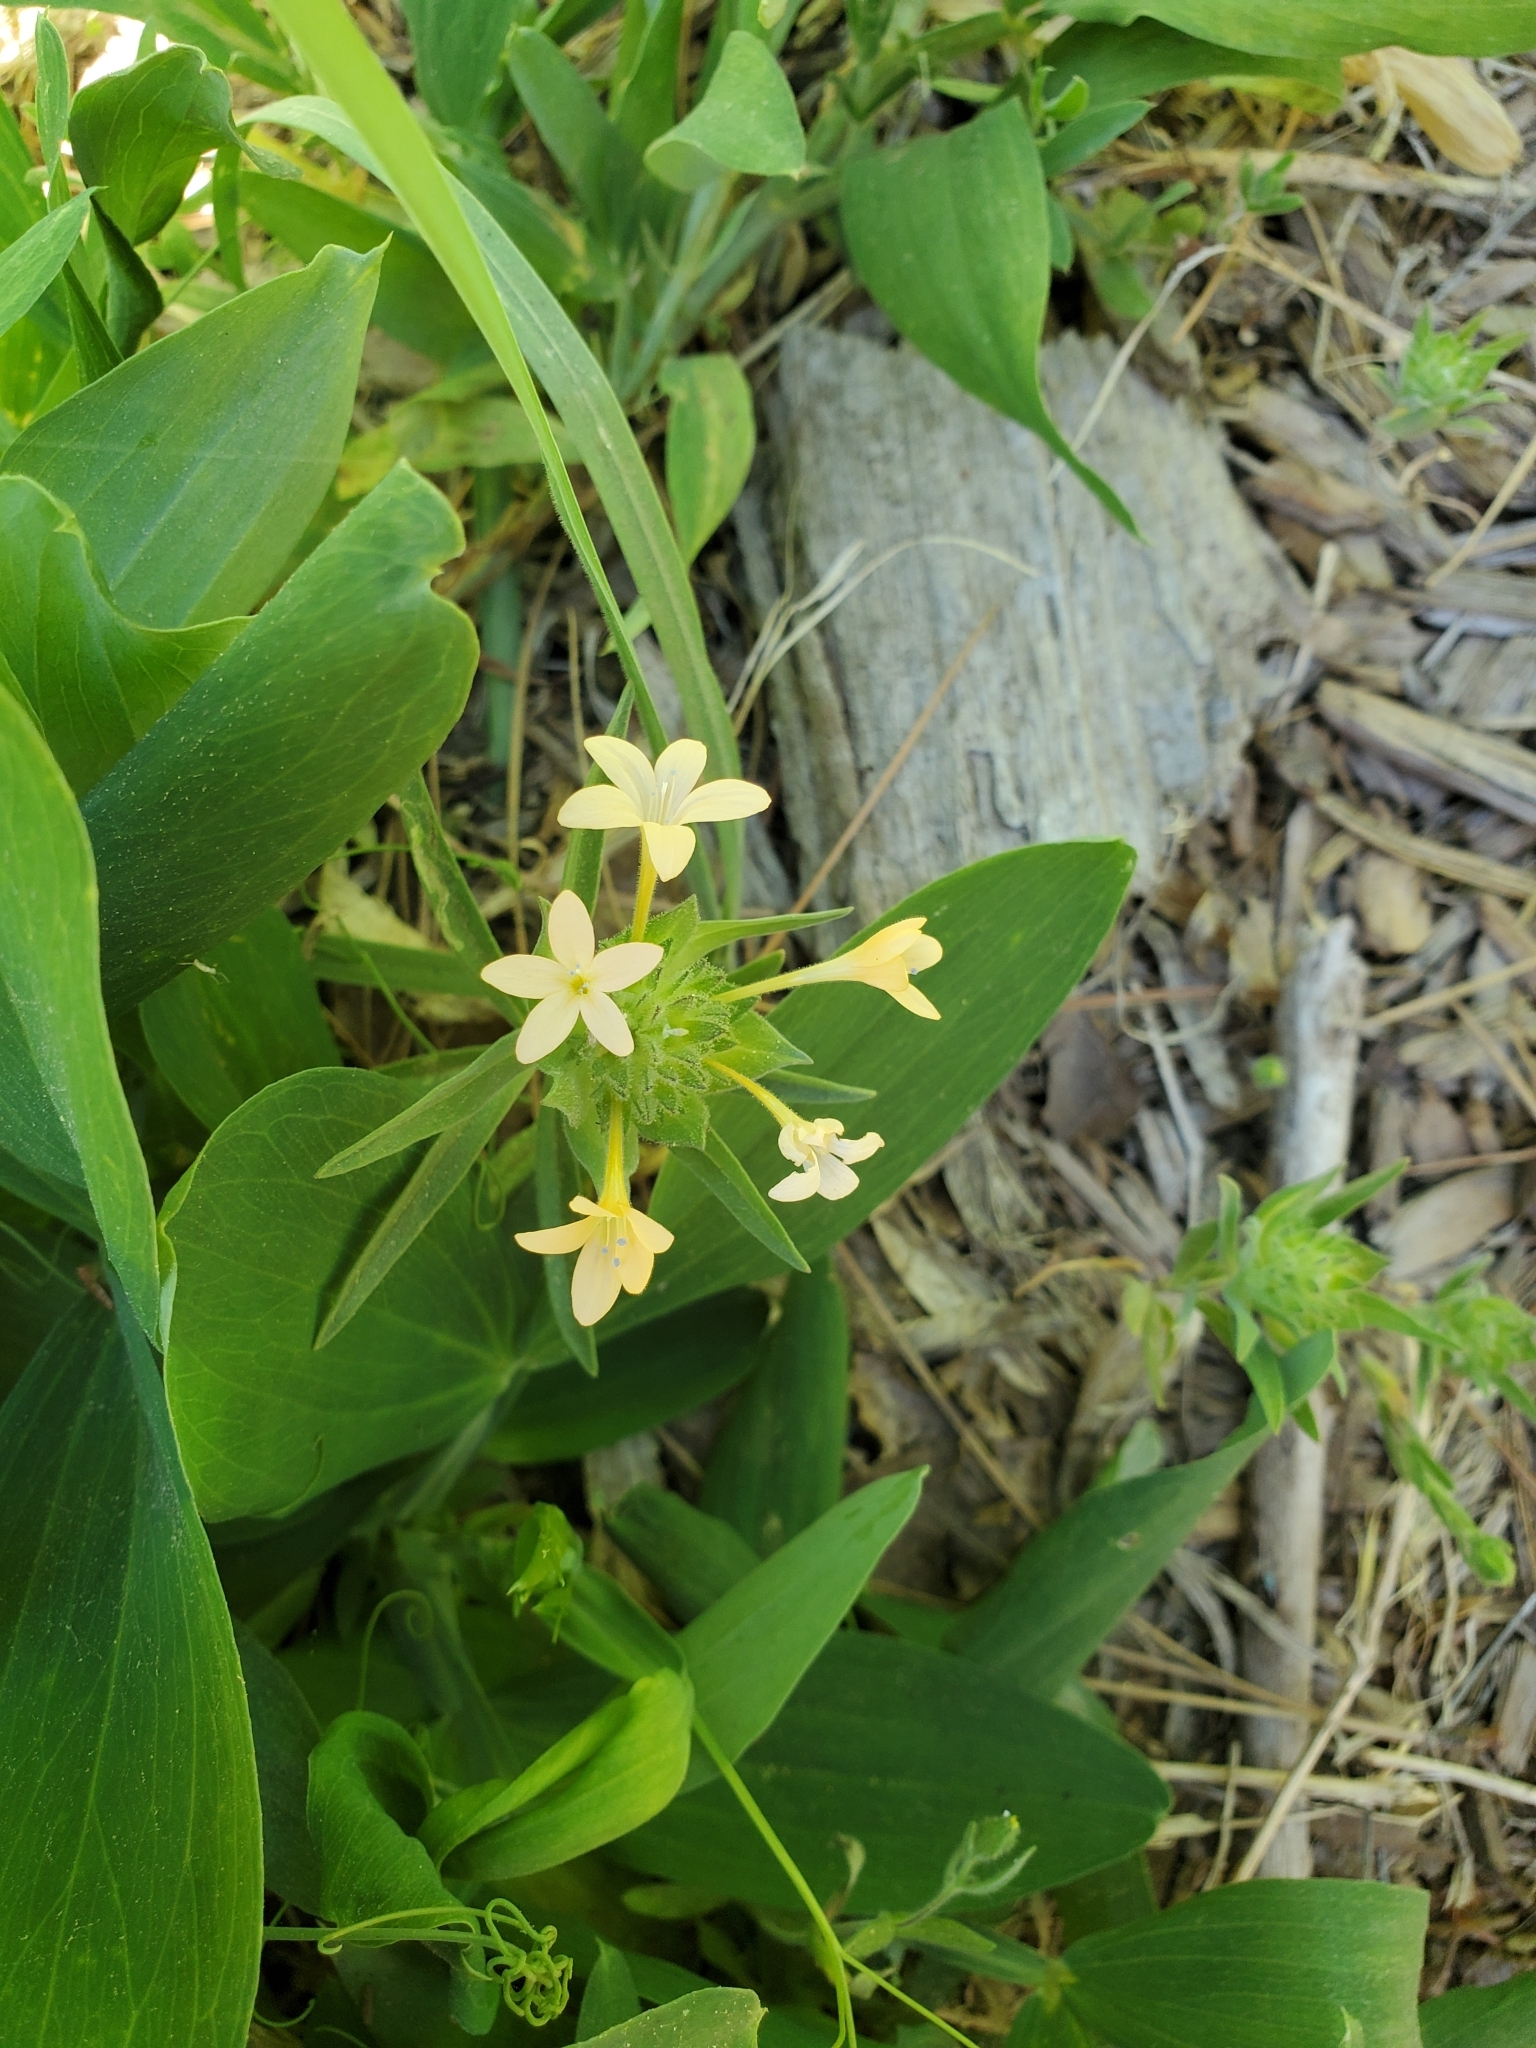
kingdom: Plantae
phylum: Tracheophyta
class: Magnoliopsida
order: Ericales
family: Polemoniaceae
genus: Collomia
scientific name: Collomia grandiflora
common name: California strawflower
